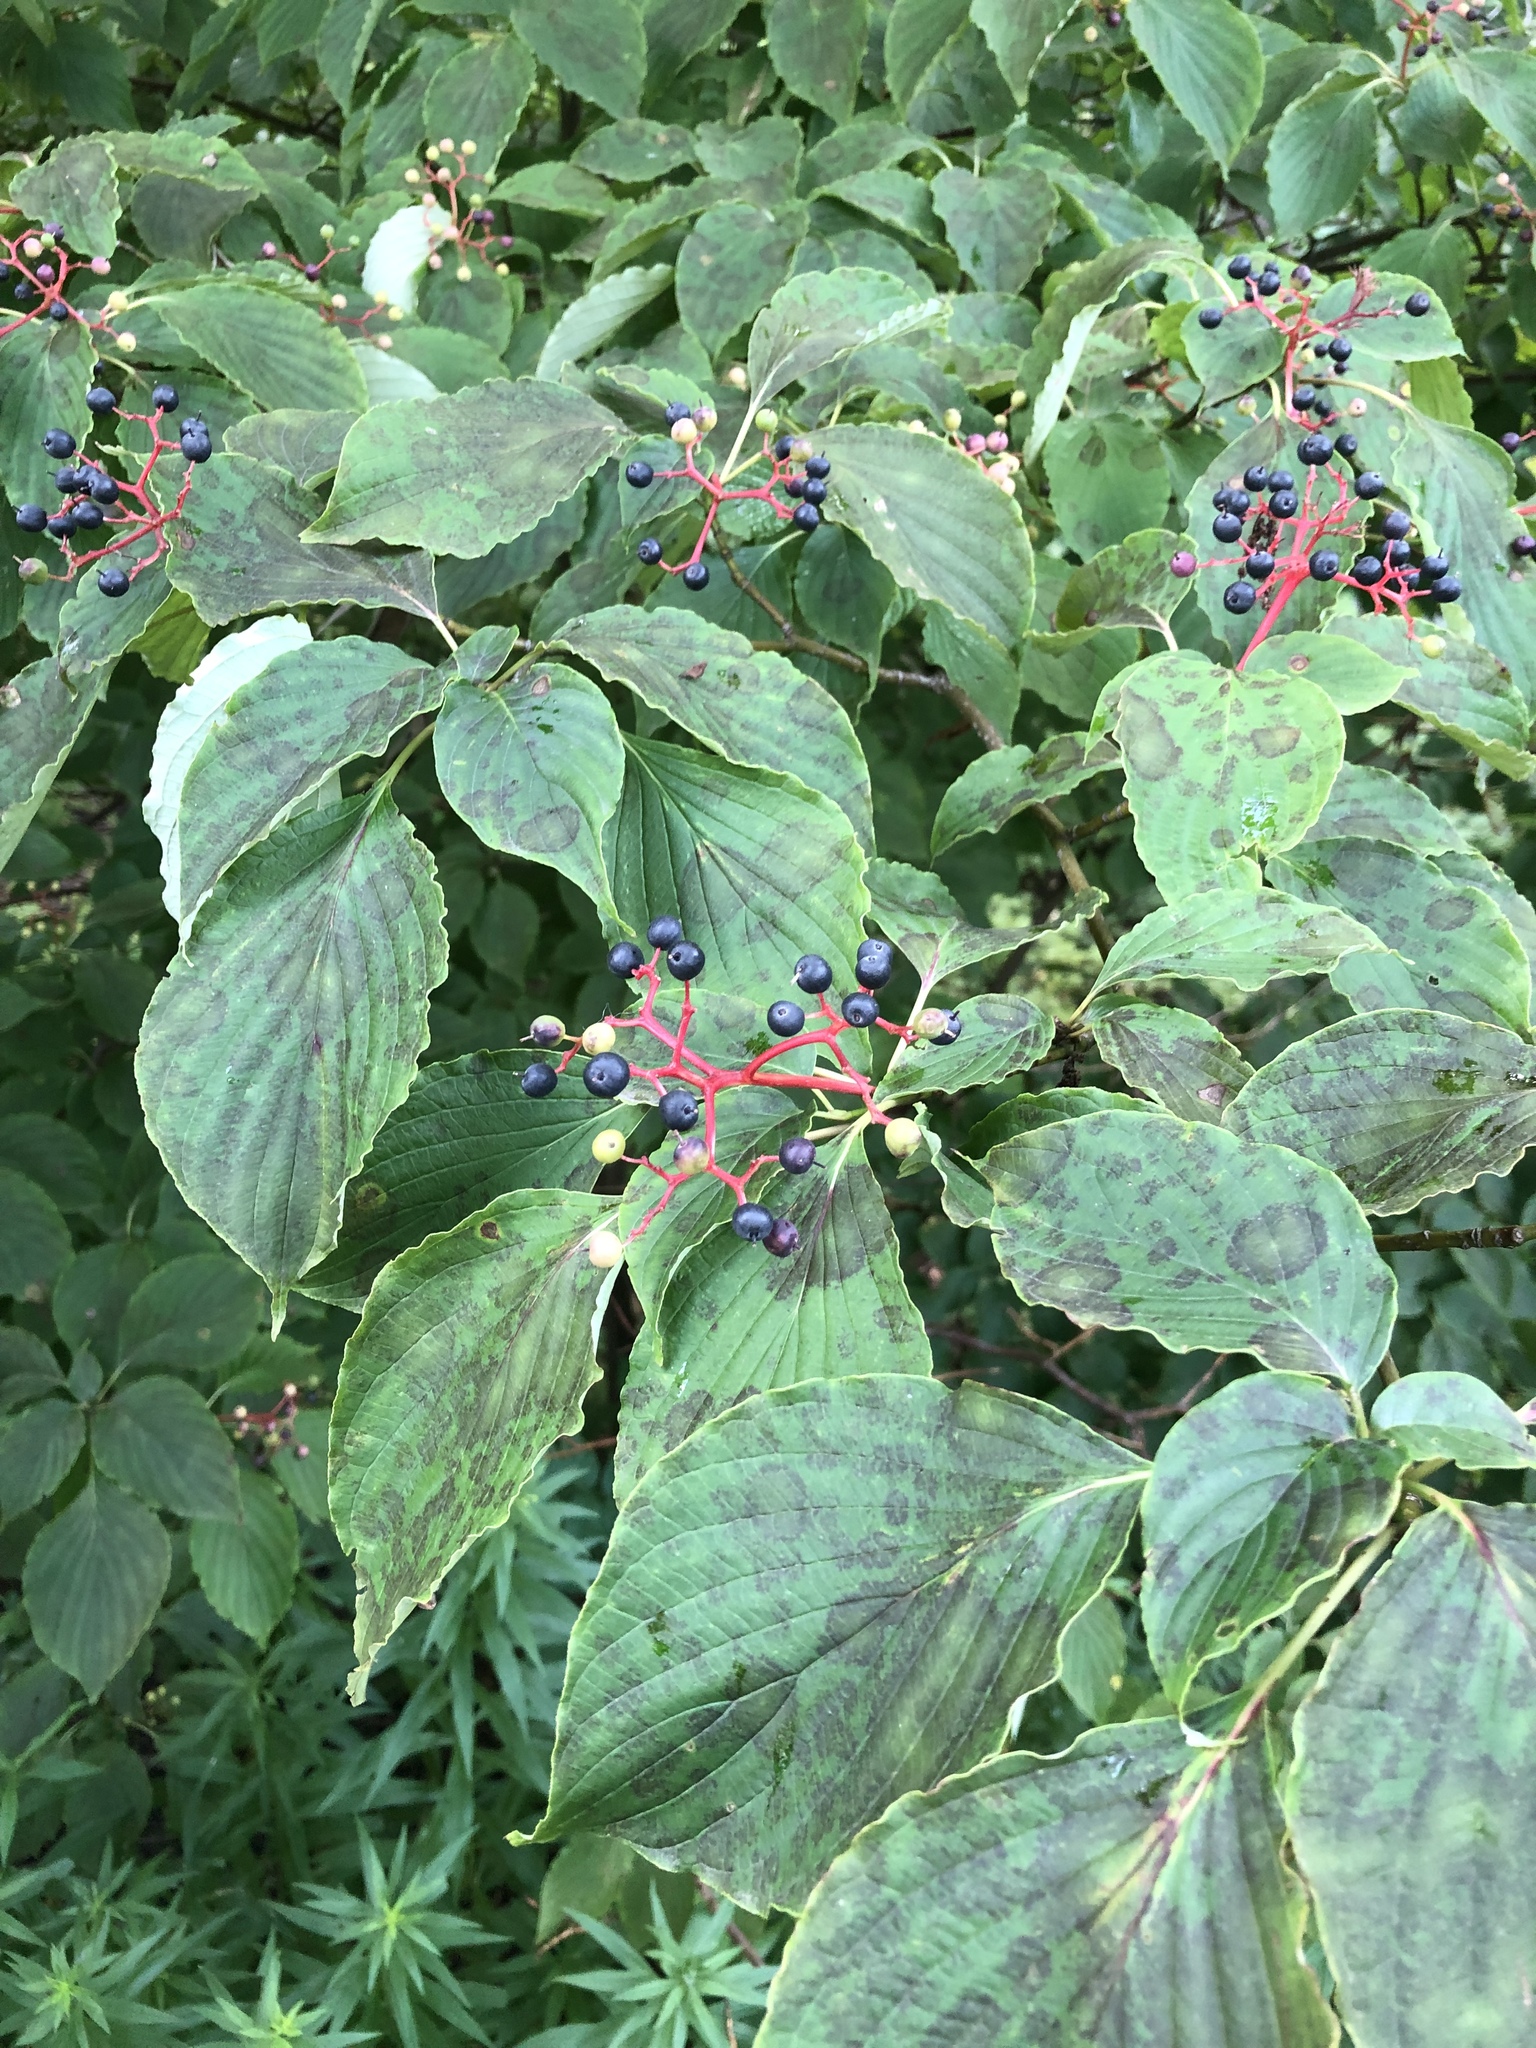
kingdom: Plantae
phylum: Tracheophyta
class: Magnoliopsida
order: Cornales
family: Cornaceae
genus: Cornus
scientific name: Cornus alternifolia
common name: Pagoda dogwood
